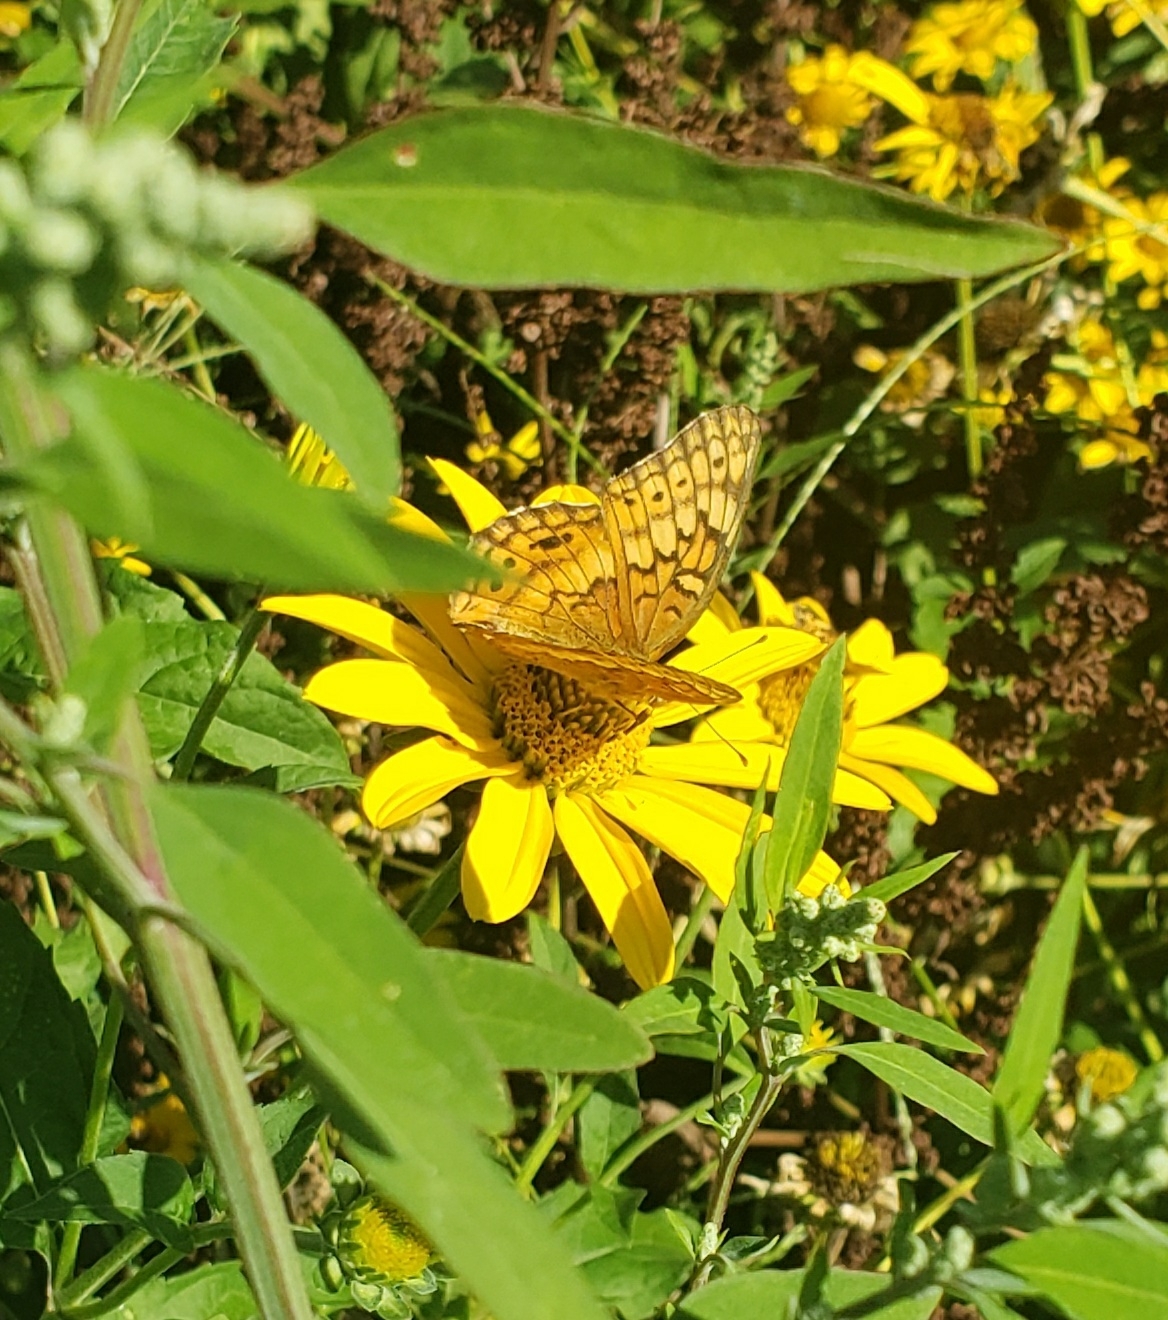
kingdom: Animalia
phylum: Arthropoda
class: Insecta
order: Lepidoptera
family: Nymphalidae
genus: Euptoieta
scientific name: Euptoieta claudia
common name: Variegated fritillary
